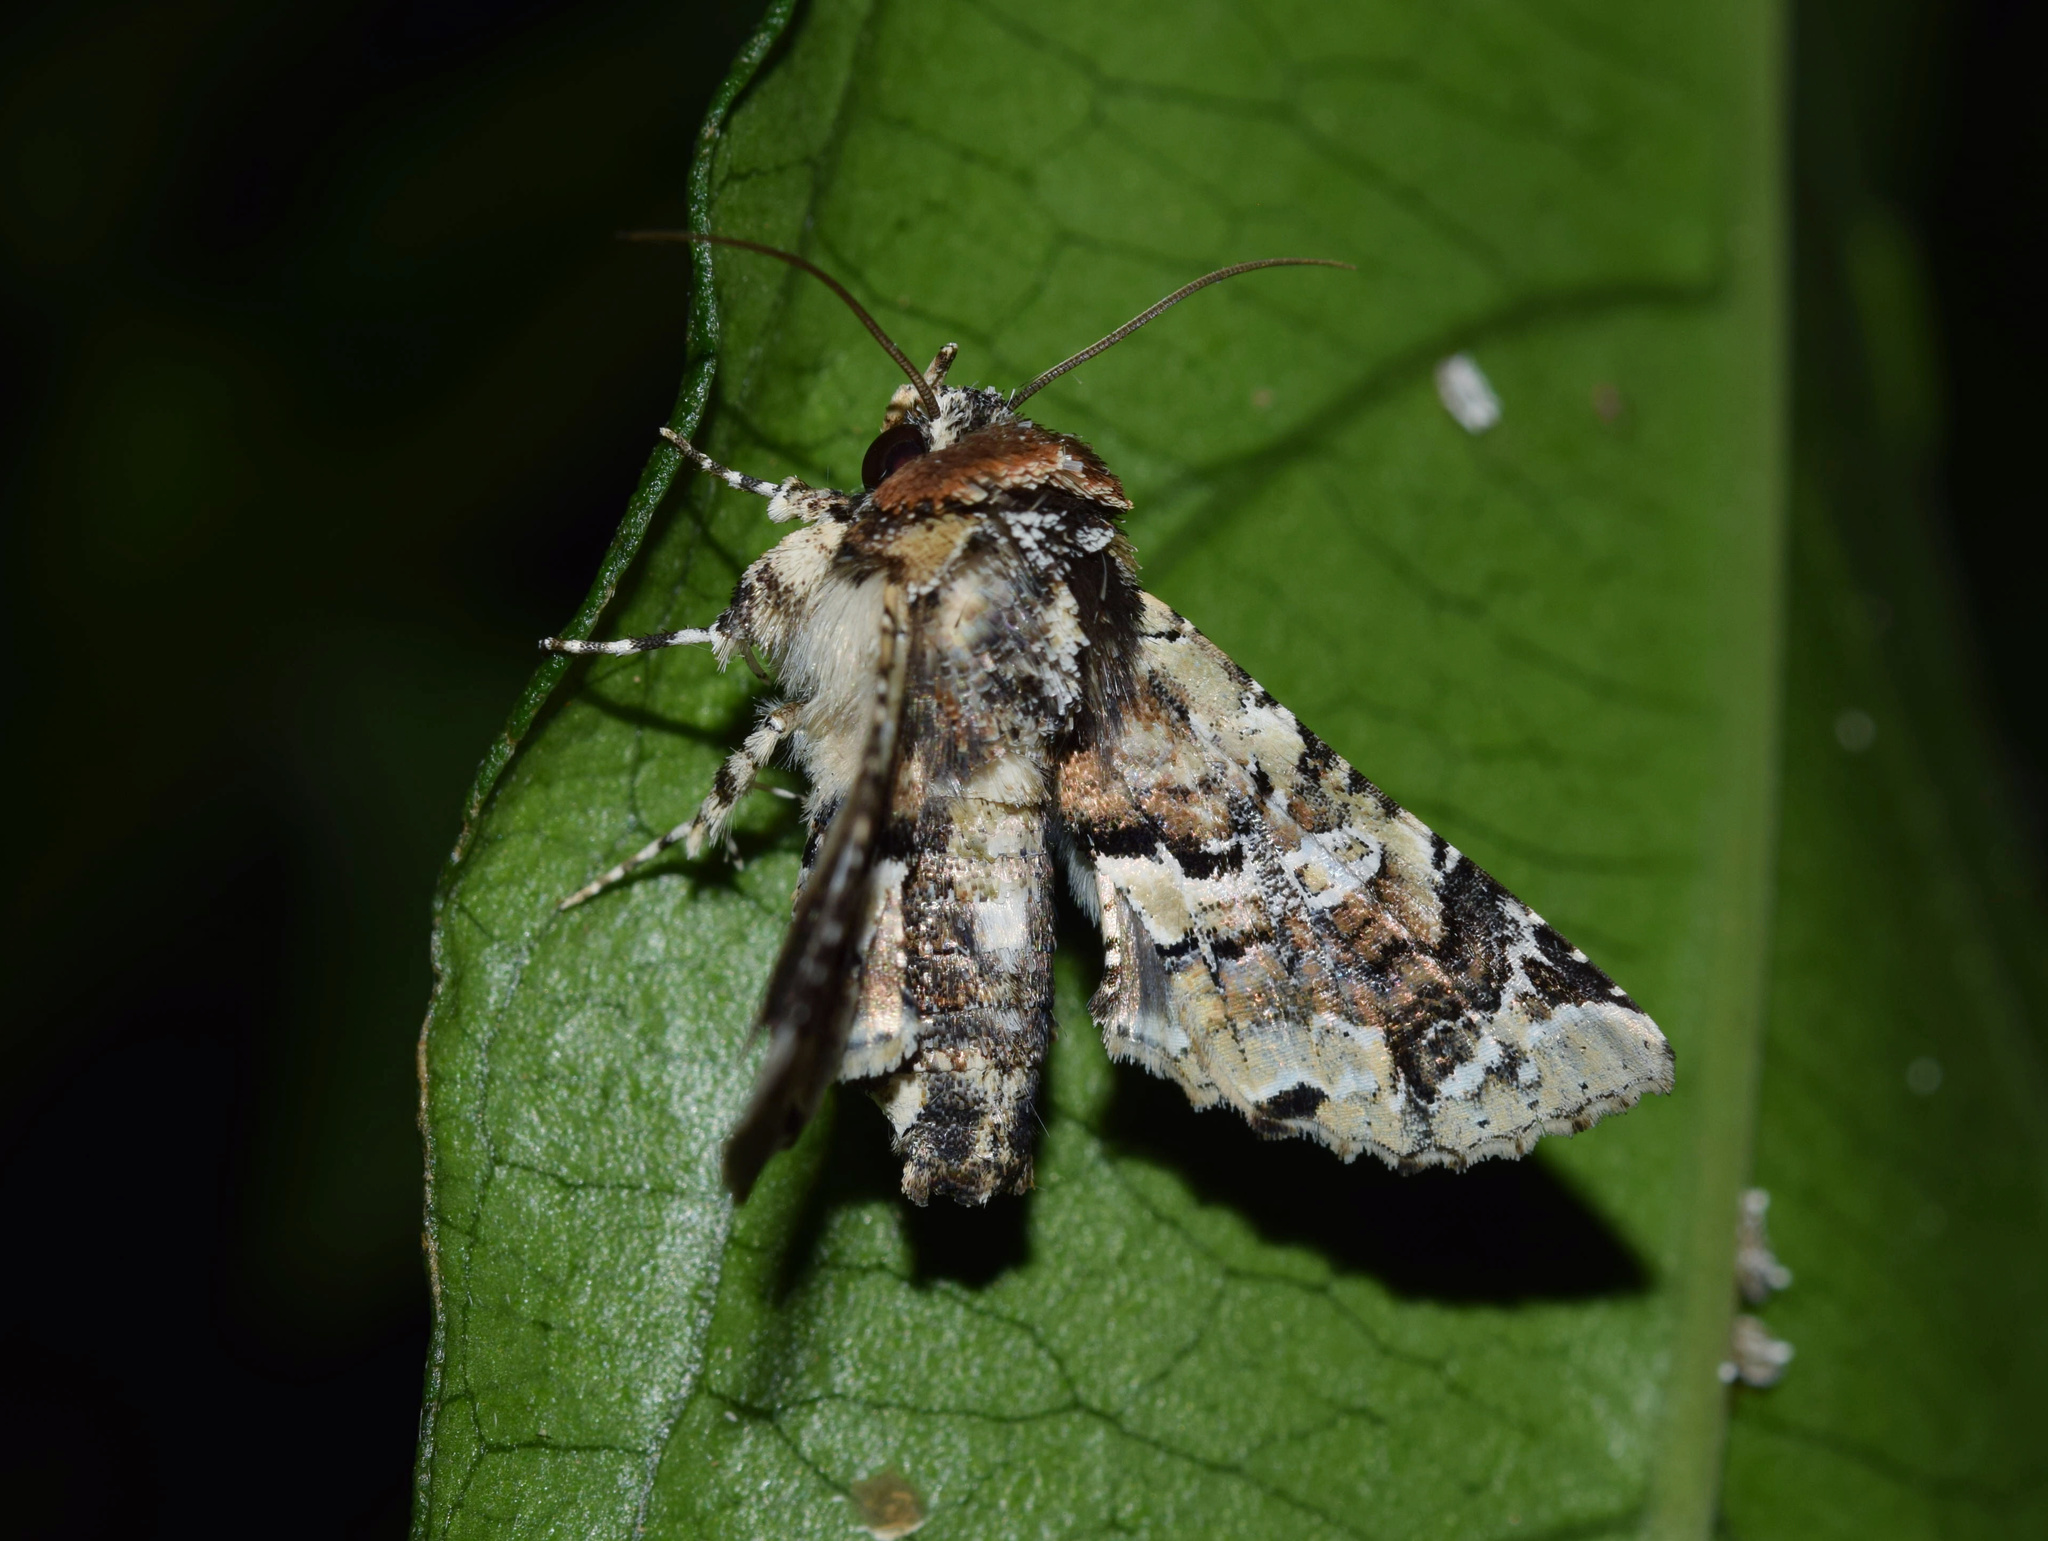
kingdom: Animalia
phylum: Arthropoda
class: Insecta
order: Lepidoptera
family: Euteliidae
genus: Eutelia
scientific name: Eutelia bowkeri
